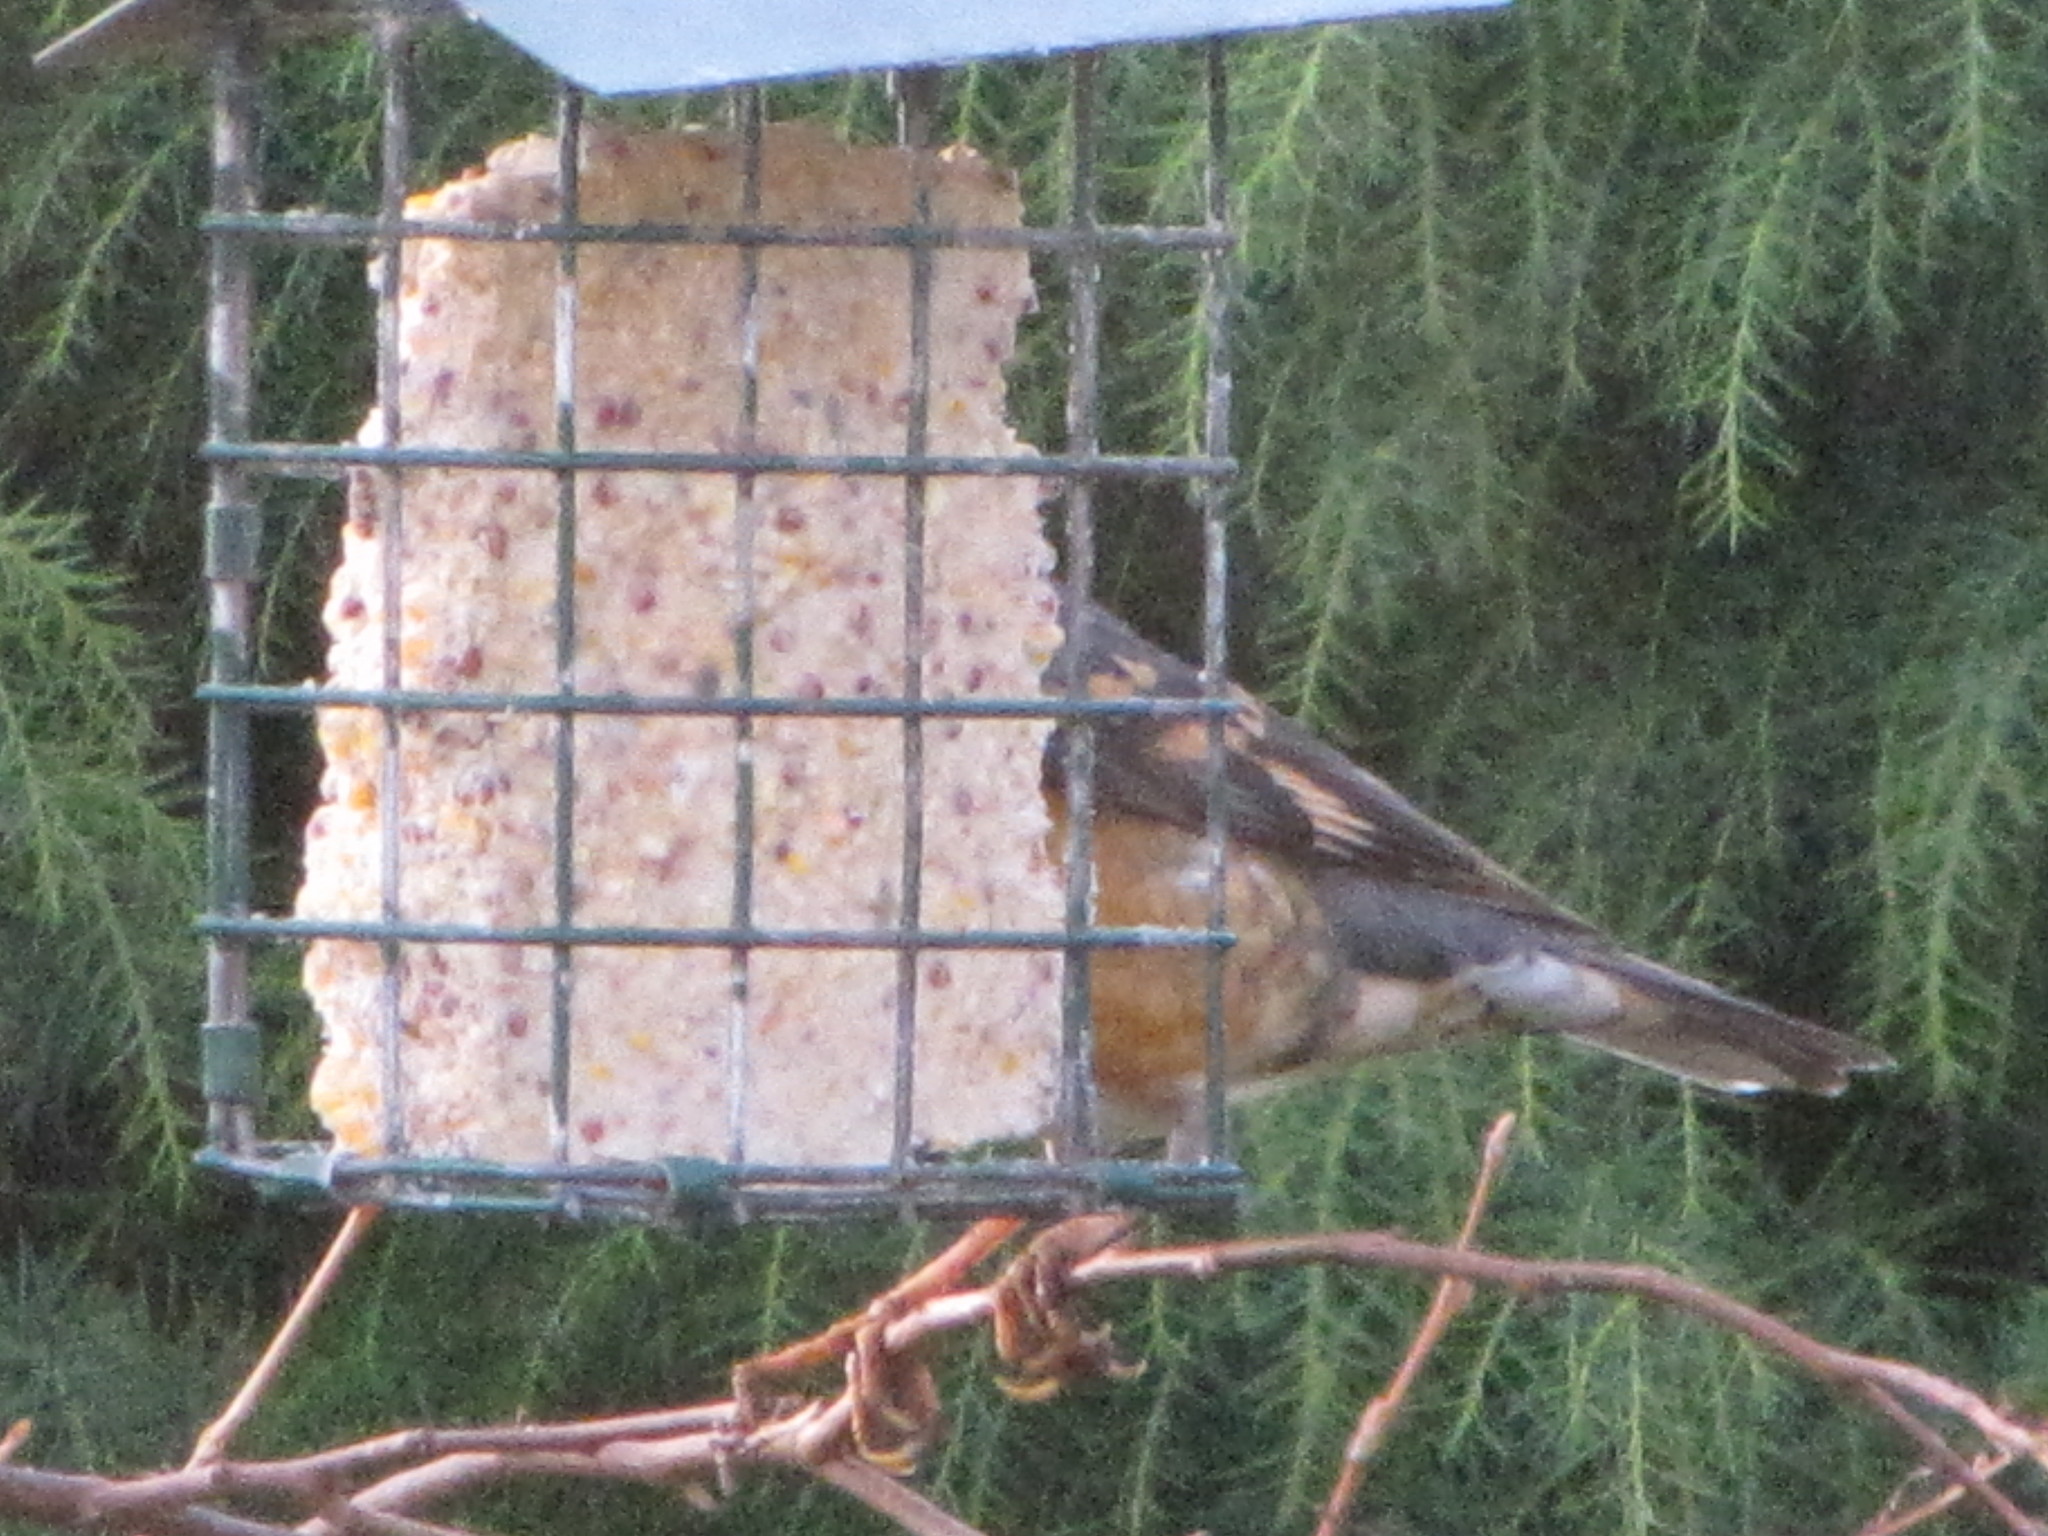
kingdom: Animalia
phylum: Chordata
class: Aves
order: Passeriformes
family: Turdidae
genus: Ixoreus
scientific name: Ixoreus naevius
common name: Varied thrush
